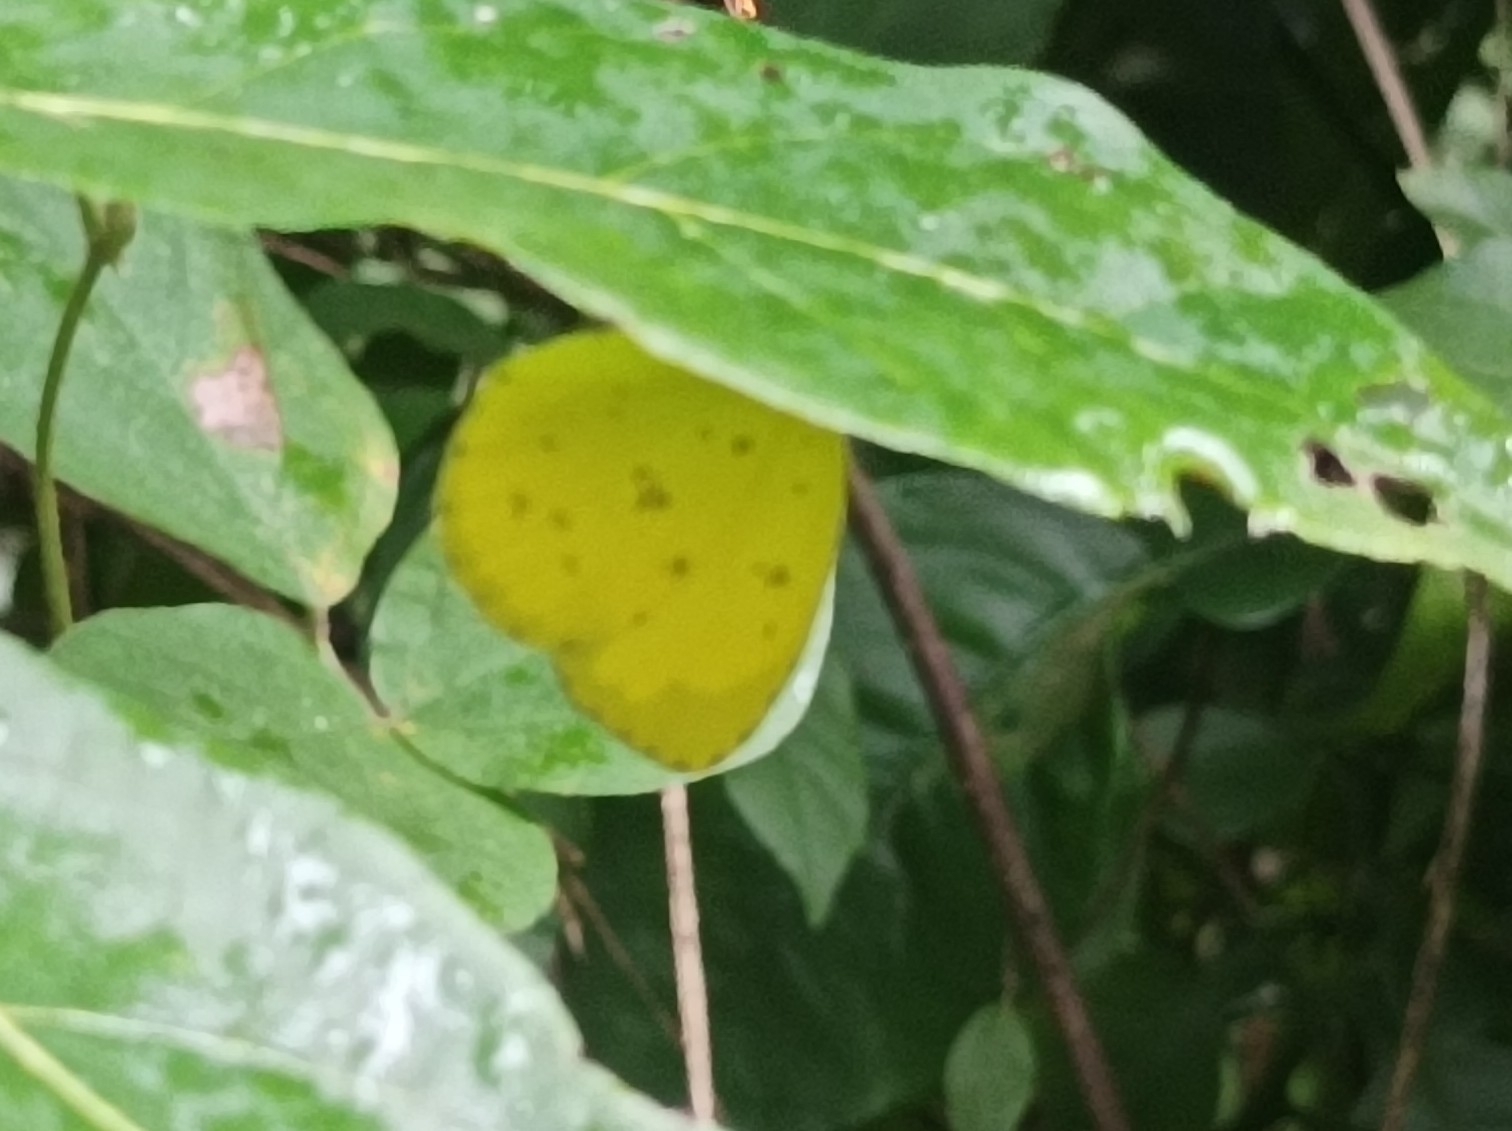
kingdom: Animalia
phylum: Arthropoda
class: Insecta
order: Lepidoptera
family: Pieridae
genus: Eurema
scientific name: Eurema hecabe
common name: Pale grass yellow
